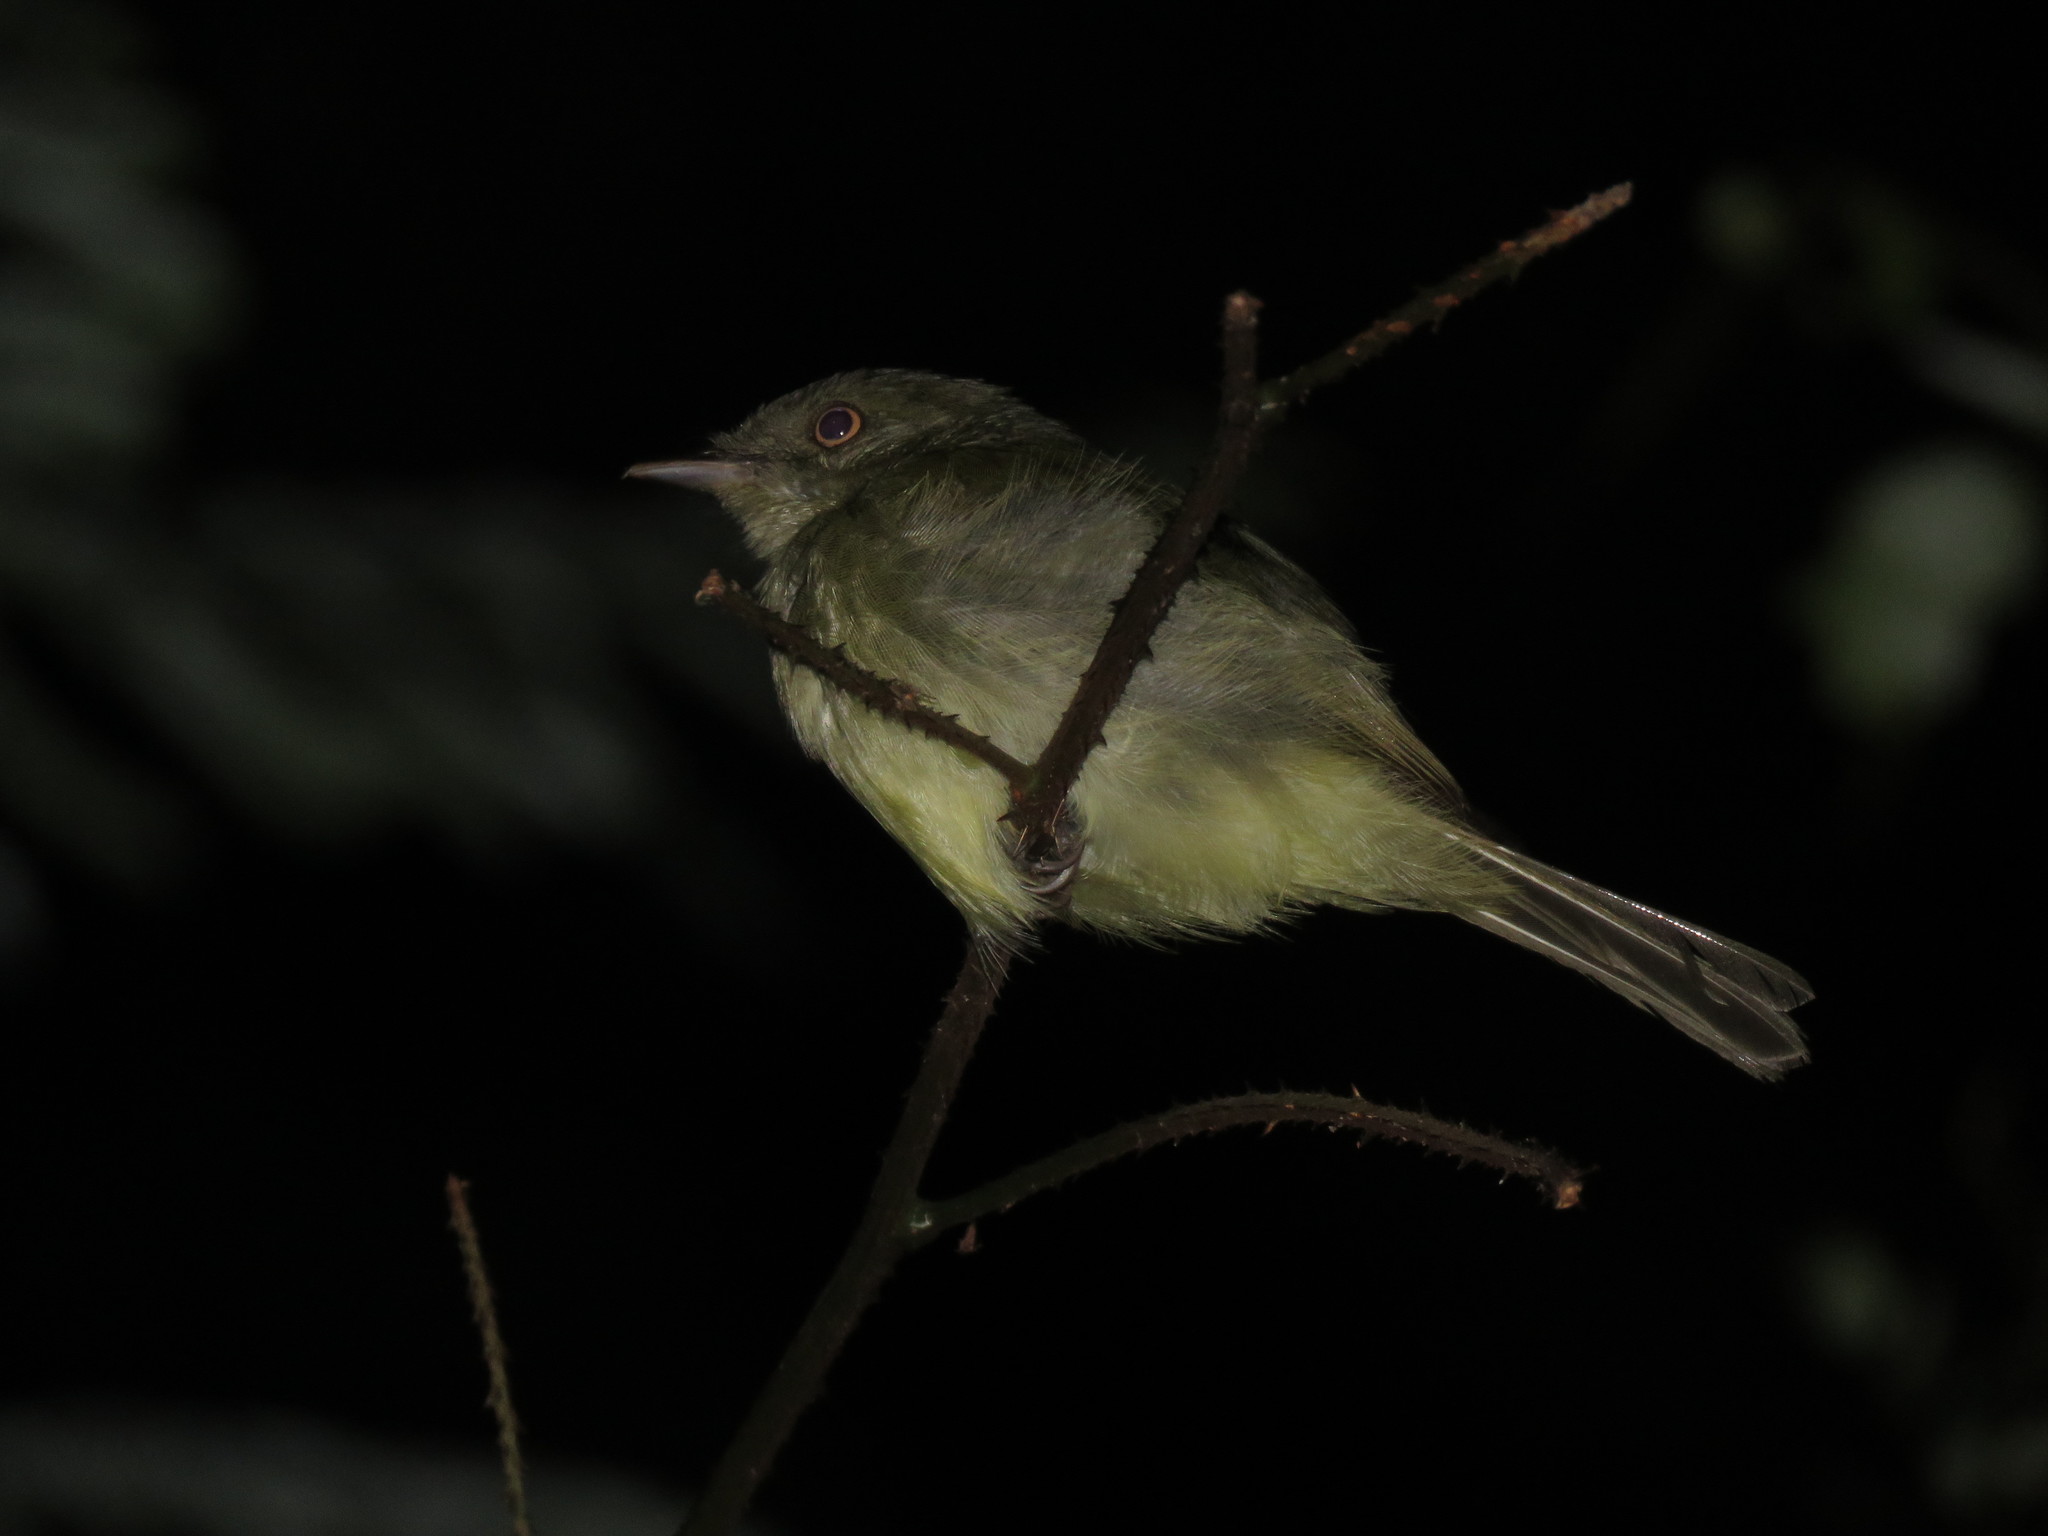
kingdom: Animalia
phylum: Chordata
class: Aves
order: Passeriformes
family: Pipridae
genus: Neopelma
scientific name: Neopelma sulphureiventer
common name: Sulphur-bellied tyrant-manakin
